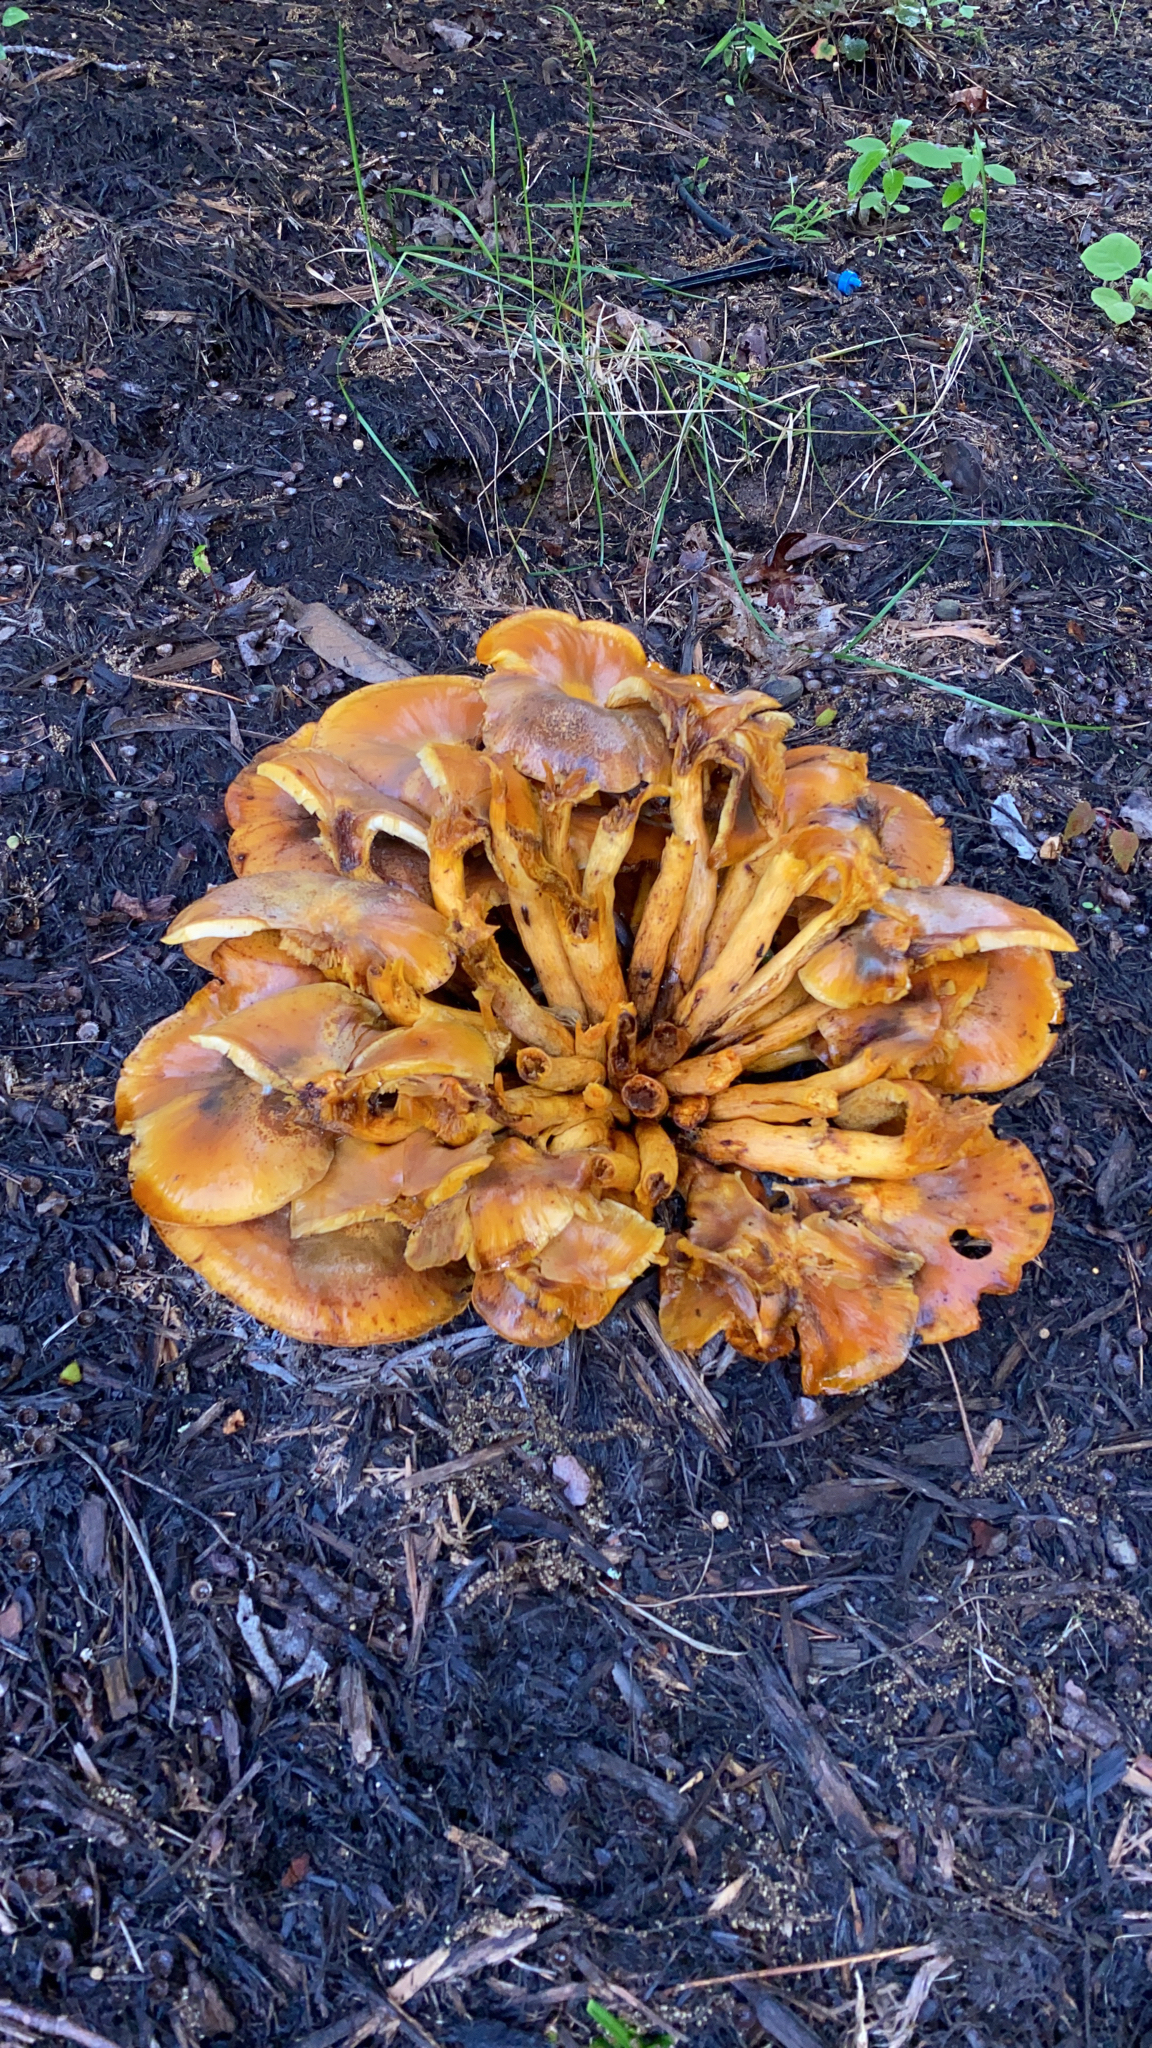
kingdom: Fungi
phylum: Basidiomycota
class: Agaricomycetes
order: Agaricales
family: Omphalotaceae
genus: Omphalotus
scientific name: Omphalotus illudens
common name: Jack o lantern
